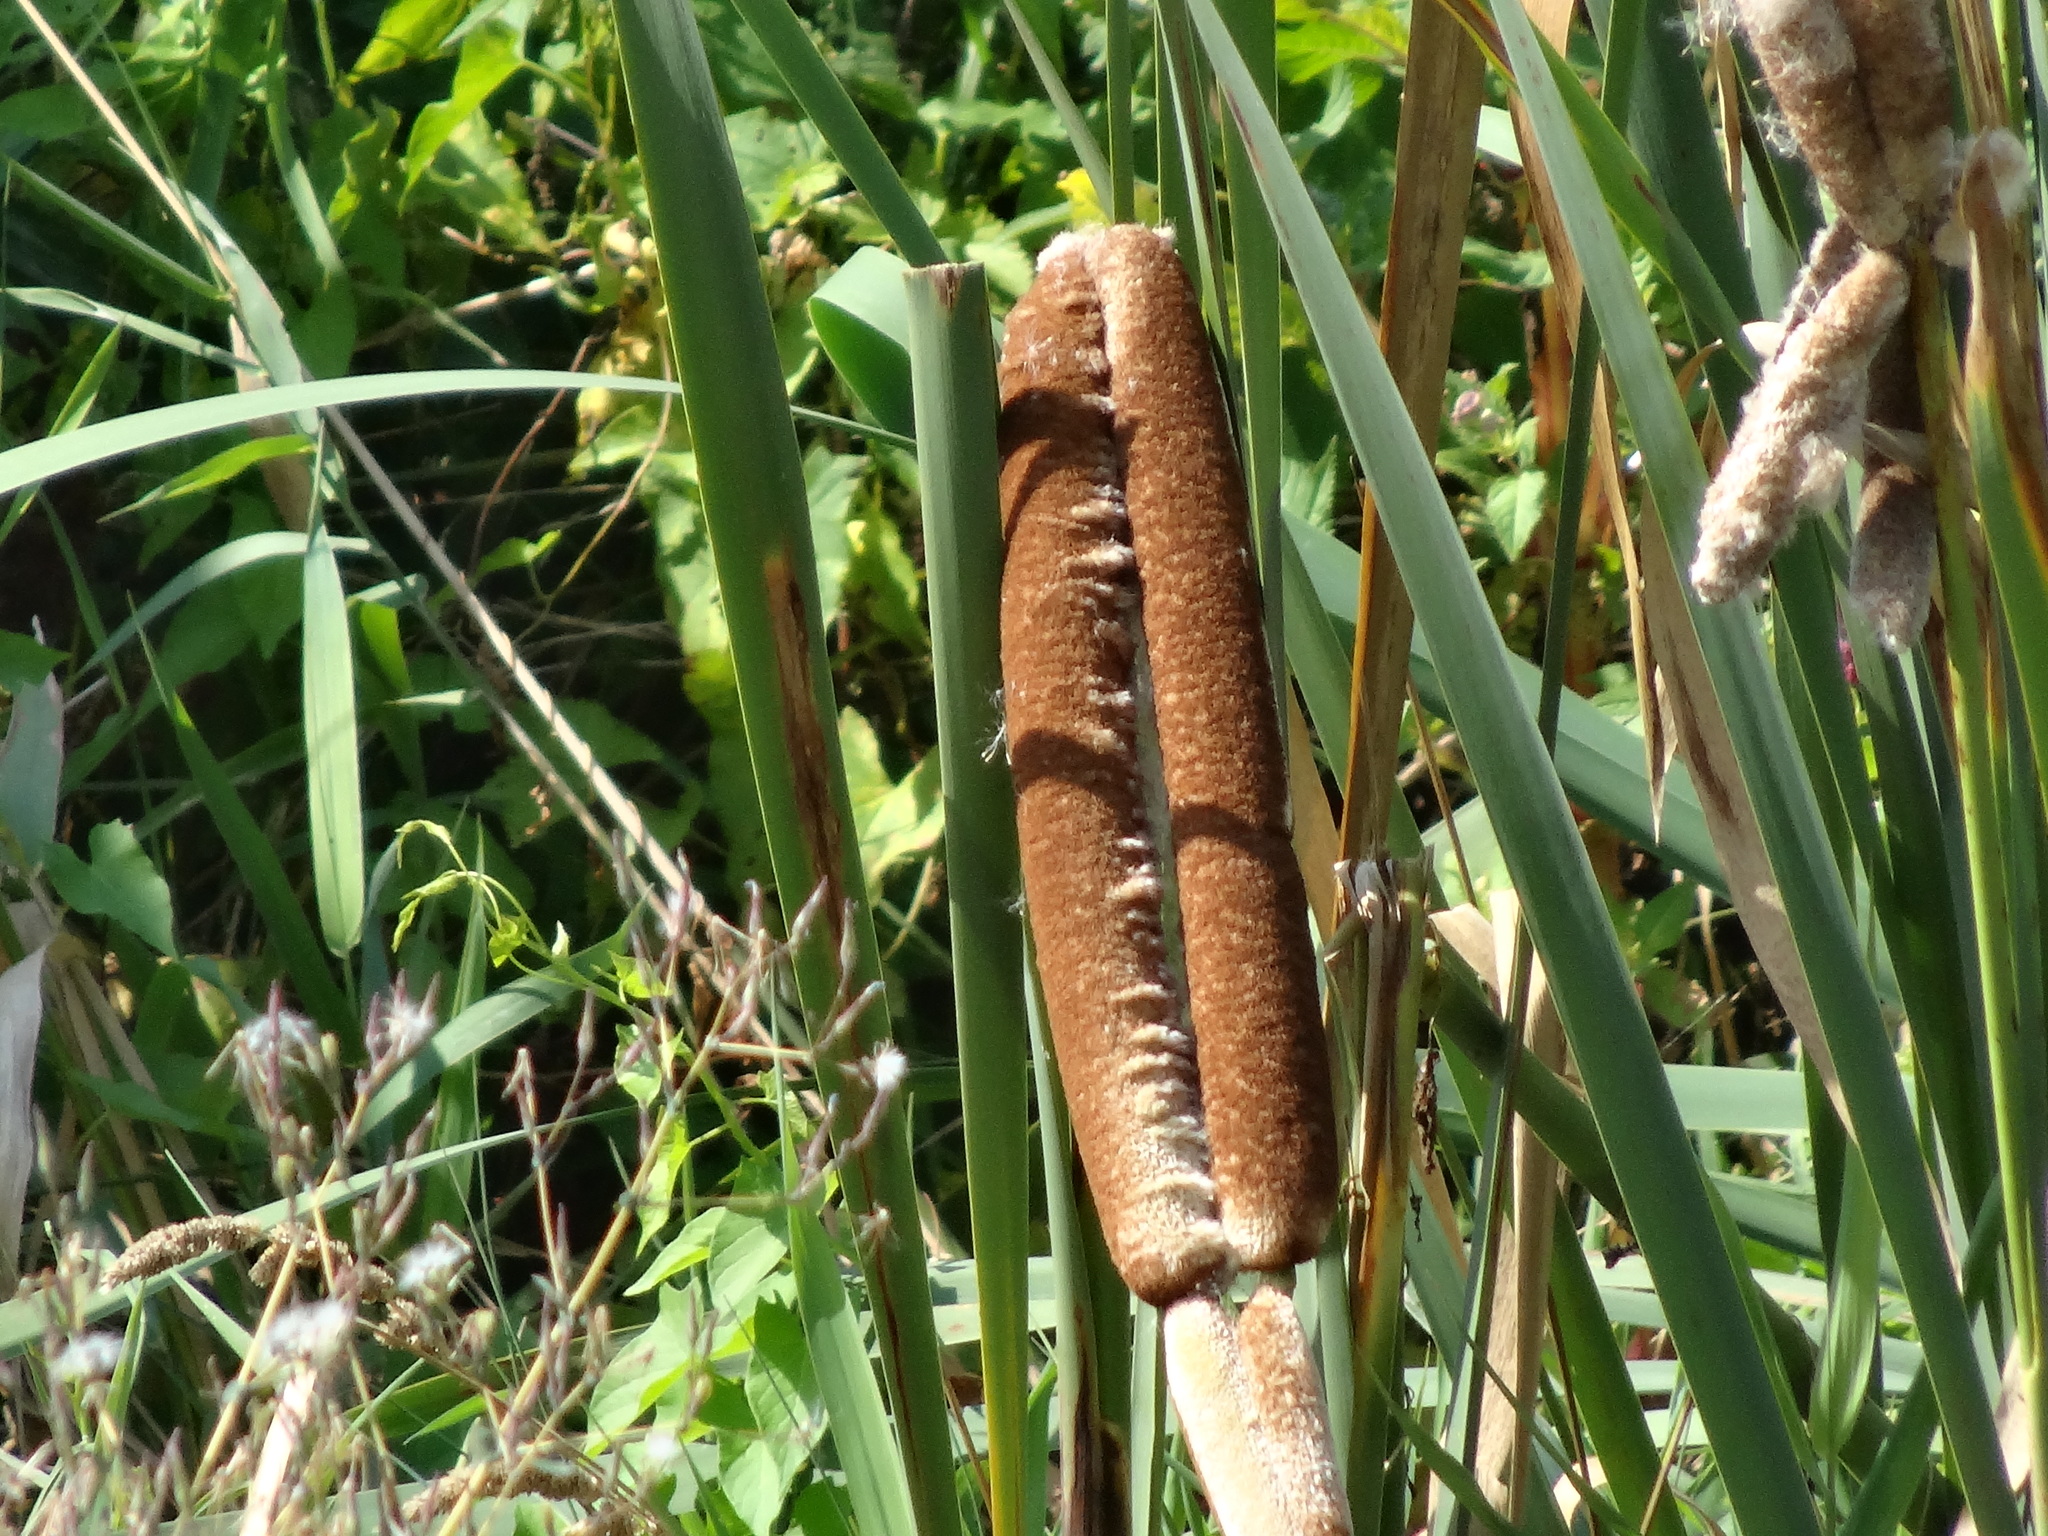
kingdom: Plantae
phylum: Tracheophyta
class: Liliopsida
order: Poales
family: Typhaceae
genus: Typha
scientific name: Typha latifolia
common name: Broadleaf cattail
